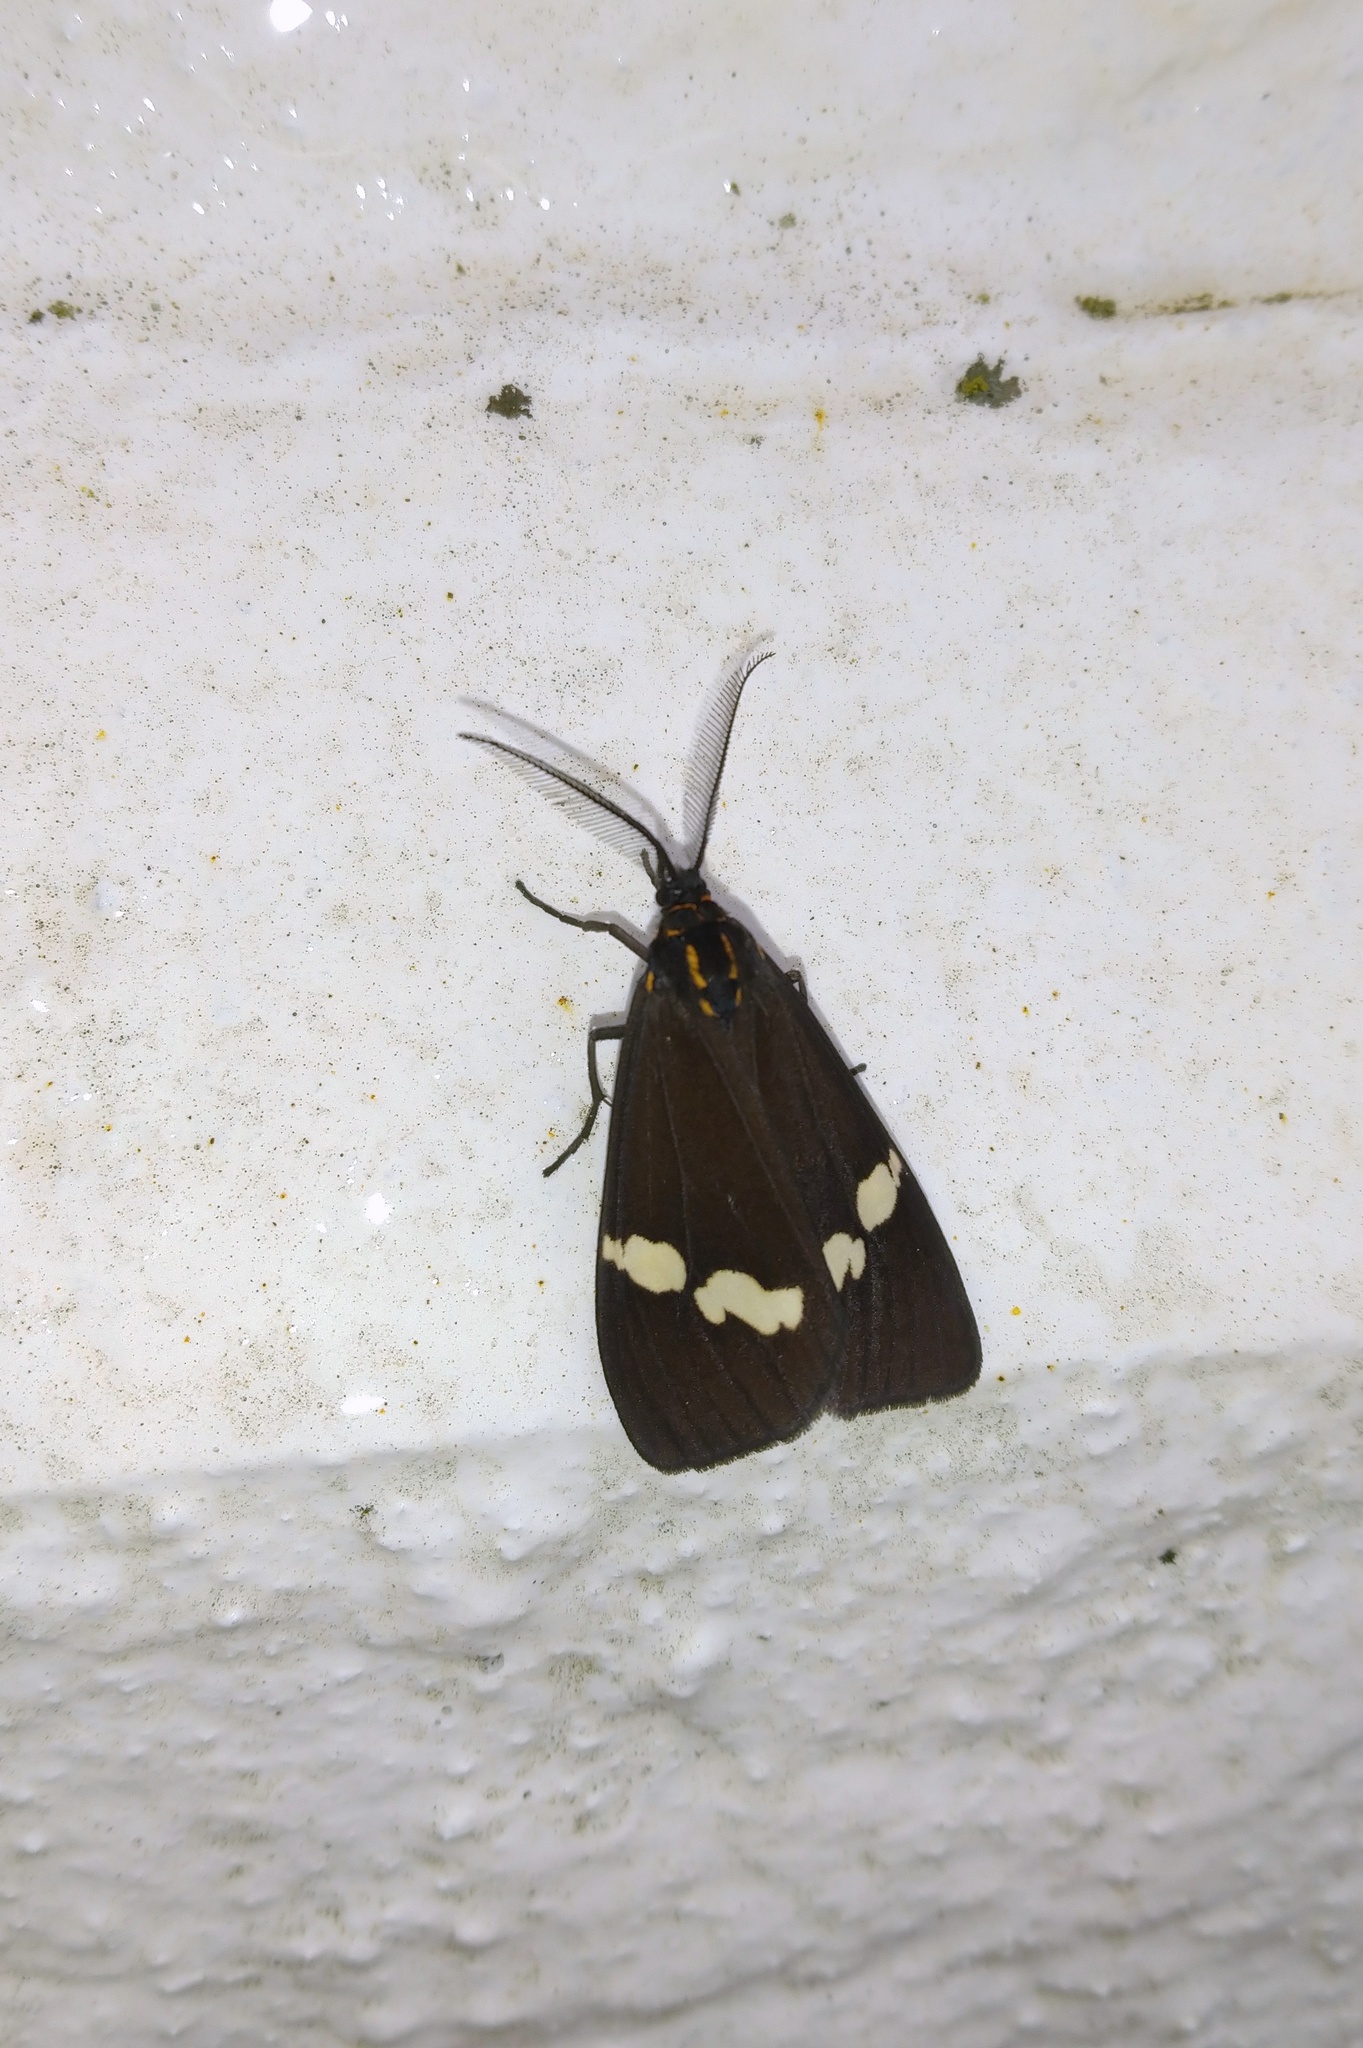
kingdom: Animalia
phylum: Arthropoda
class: Insecta
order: Lepidoptera
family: Erebidae
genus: Nyctemera
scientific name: Nyctemera annulatum
